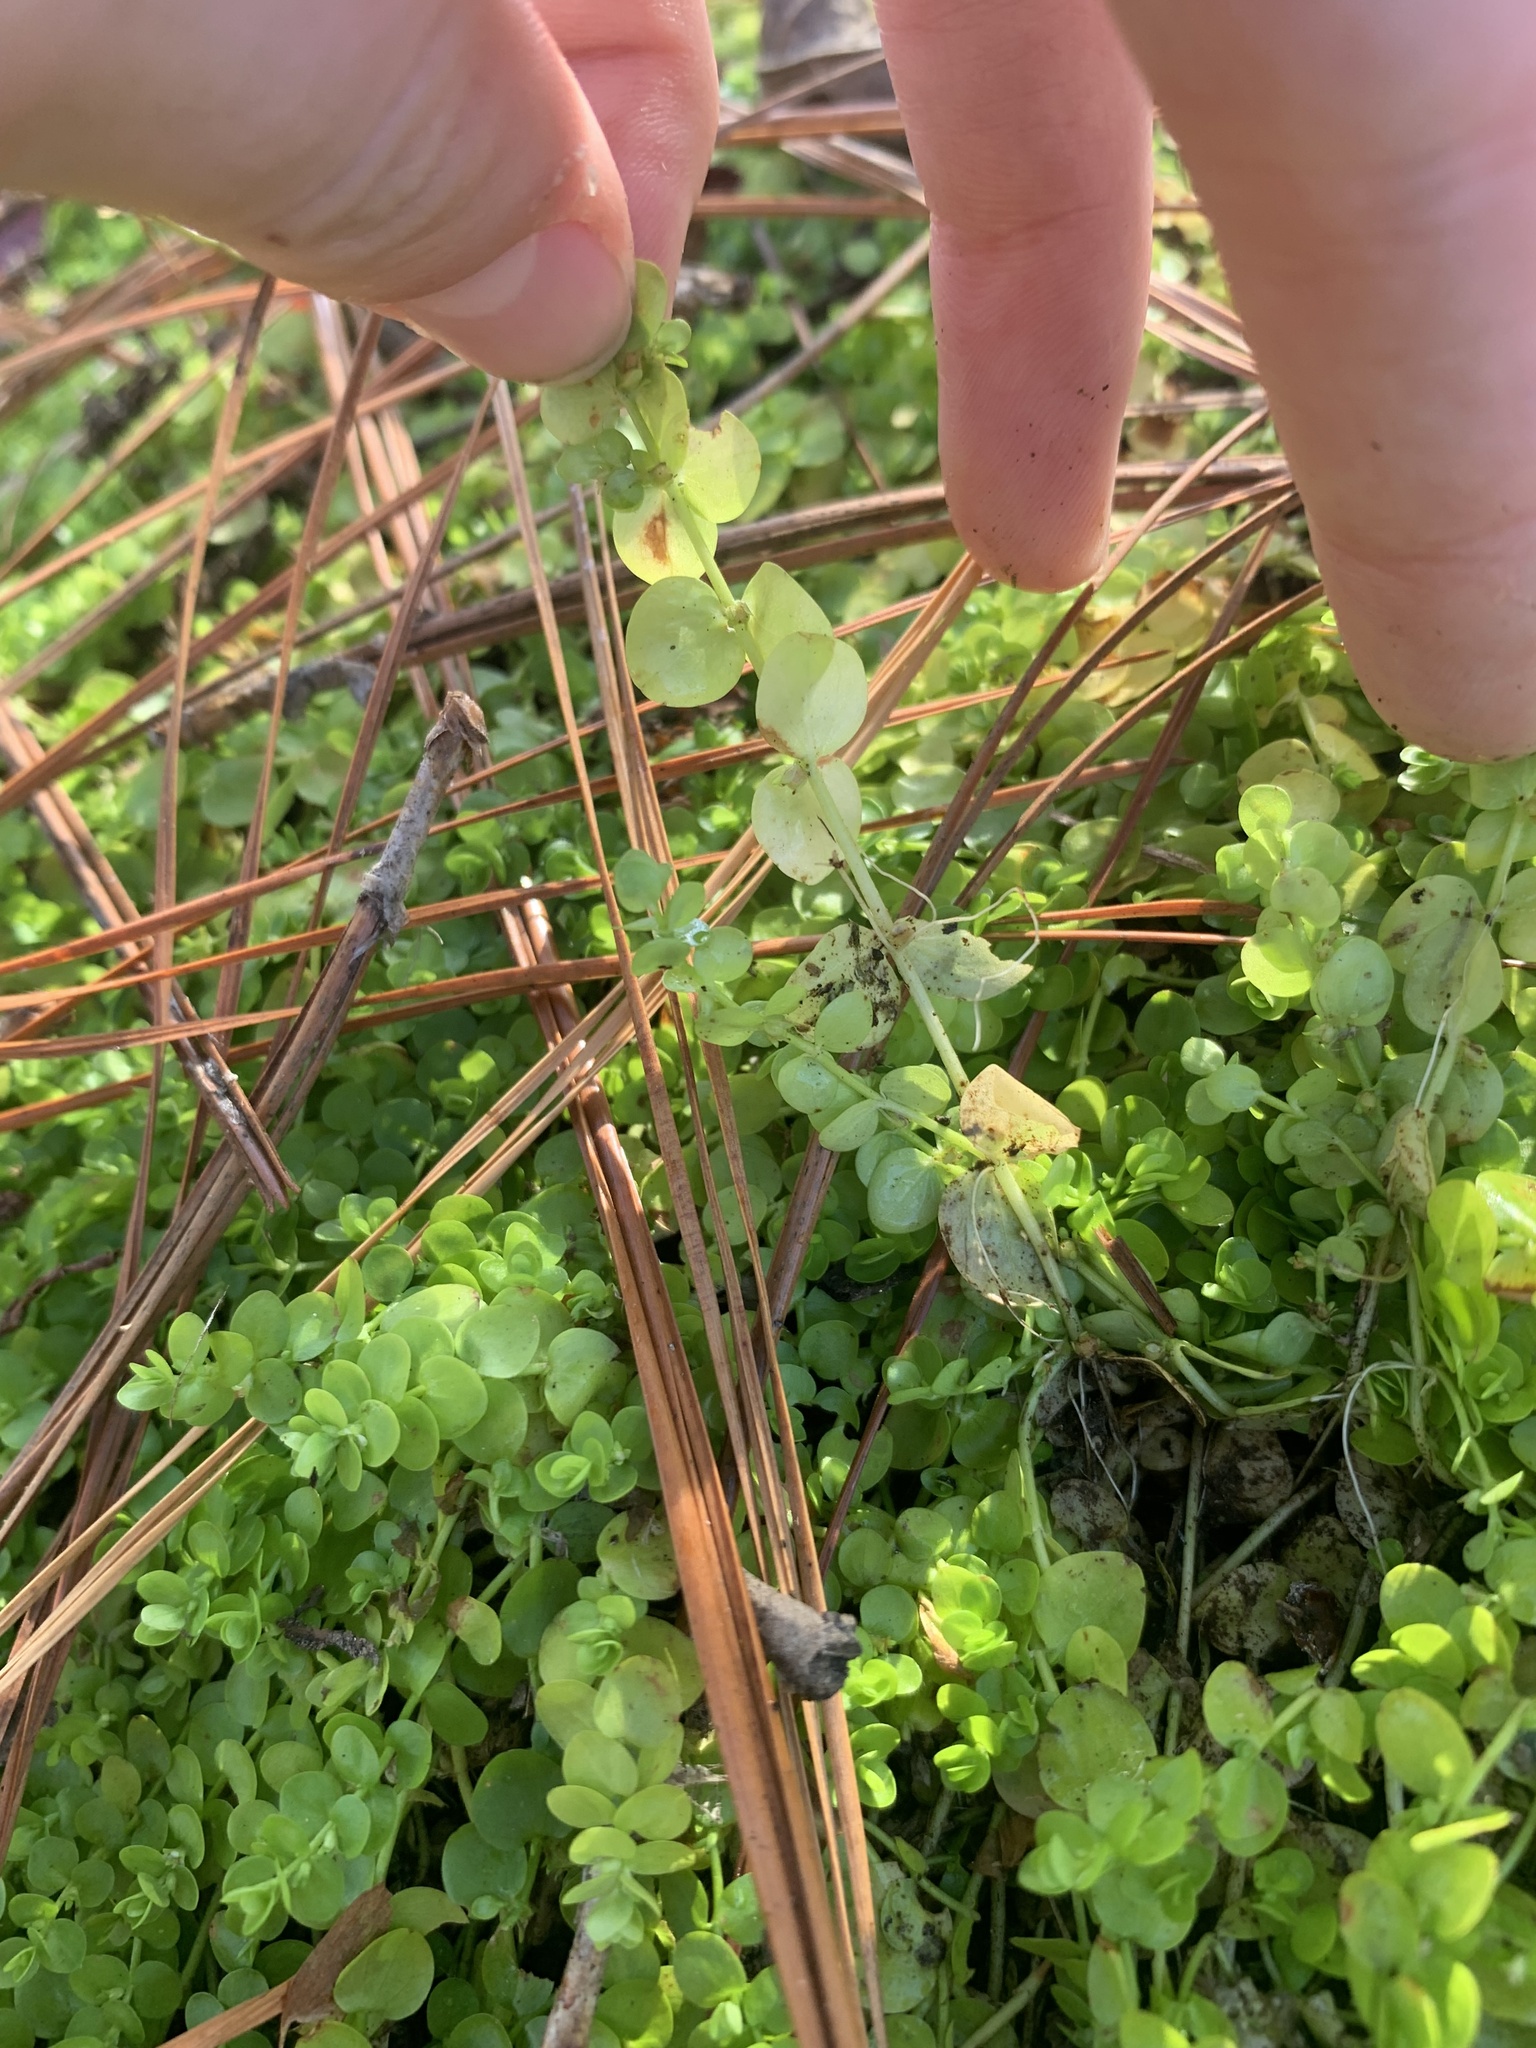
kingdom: Plantae
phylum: Tracheophyta
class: Magnoliopsida
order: Lamiales
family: Linderniaceae
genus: Micranthemum
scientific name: Micranthemum umbrosum
